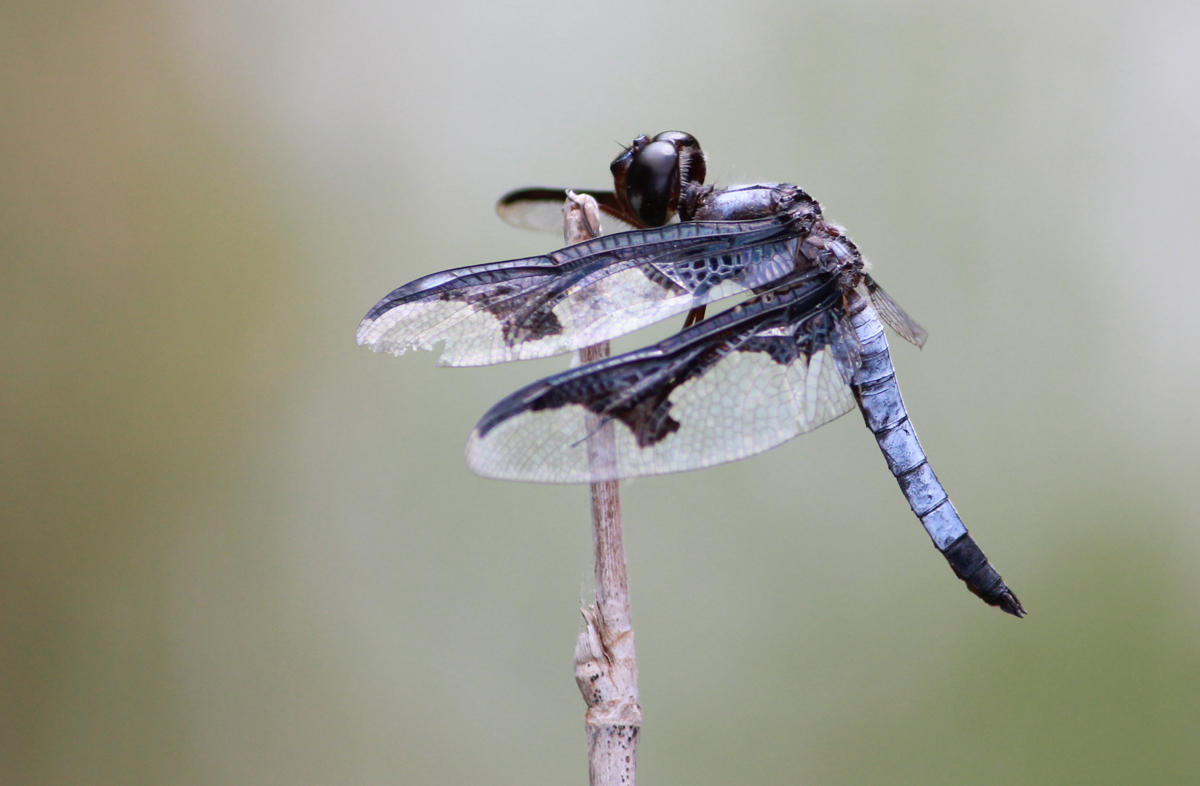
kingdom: Animalia
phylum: Arthropoda
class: Insecta
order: Odonata
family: Libellulidae
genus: Palpopleura
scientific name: Palpopleura portia
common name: Portia widow
